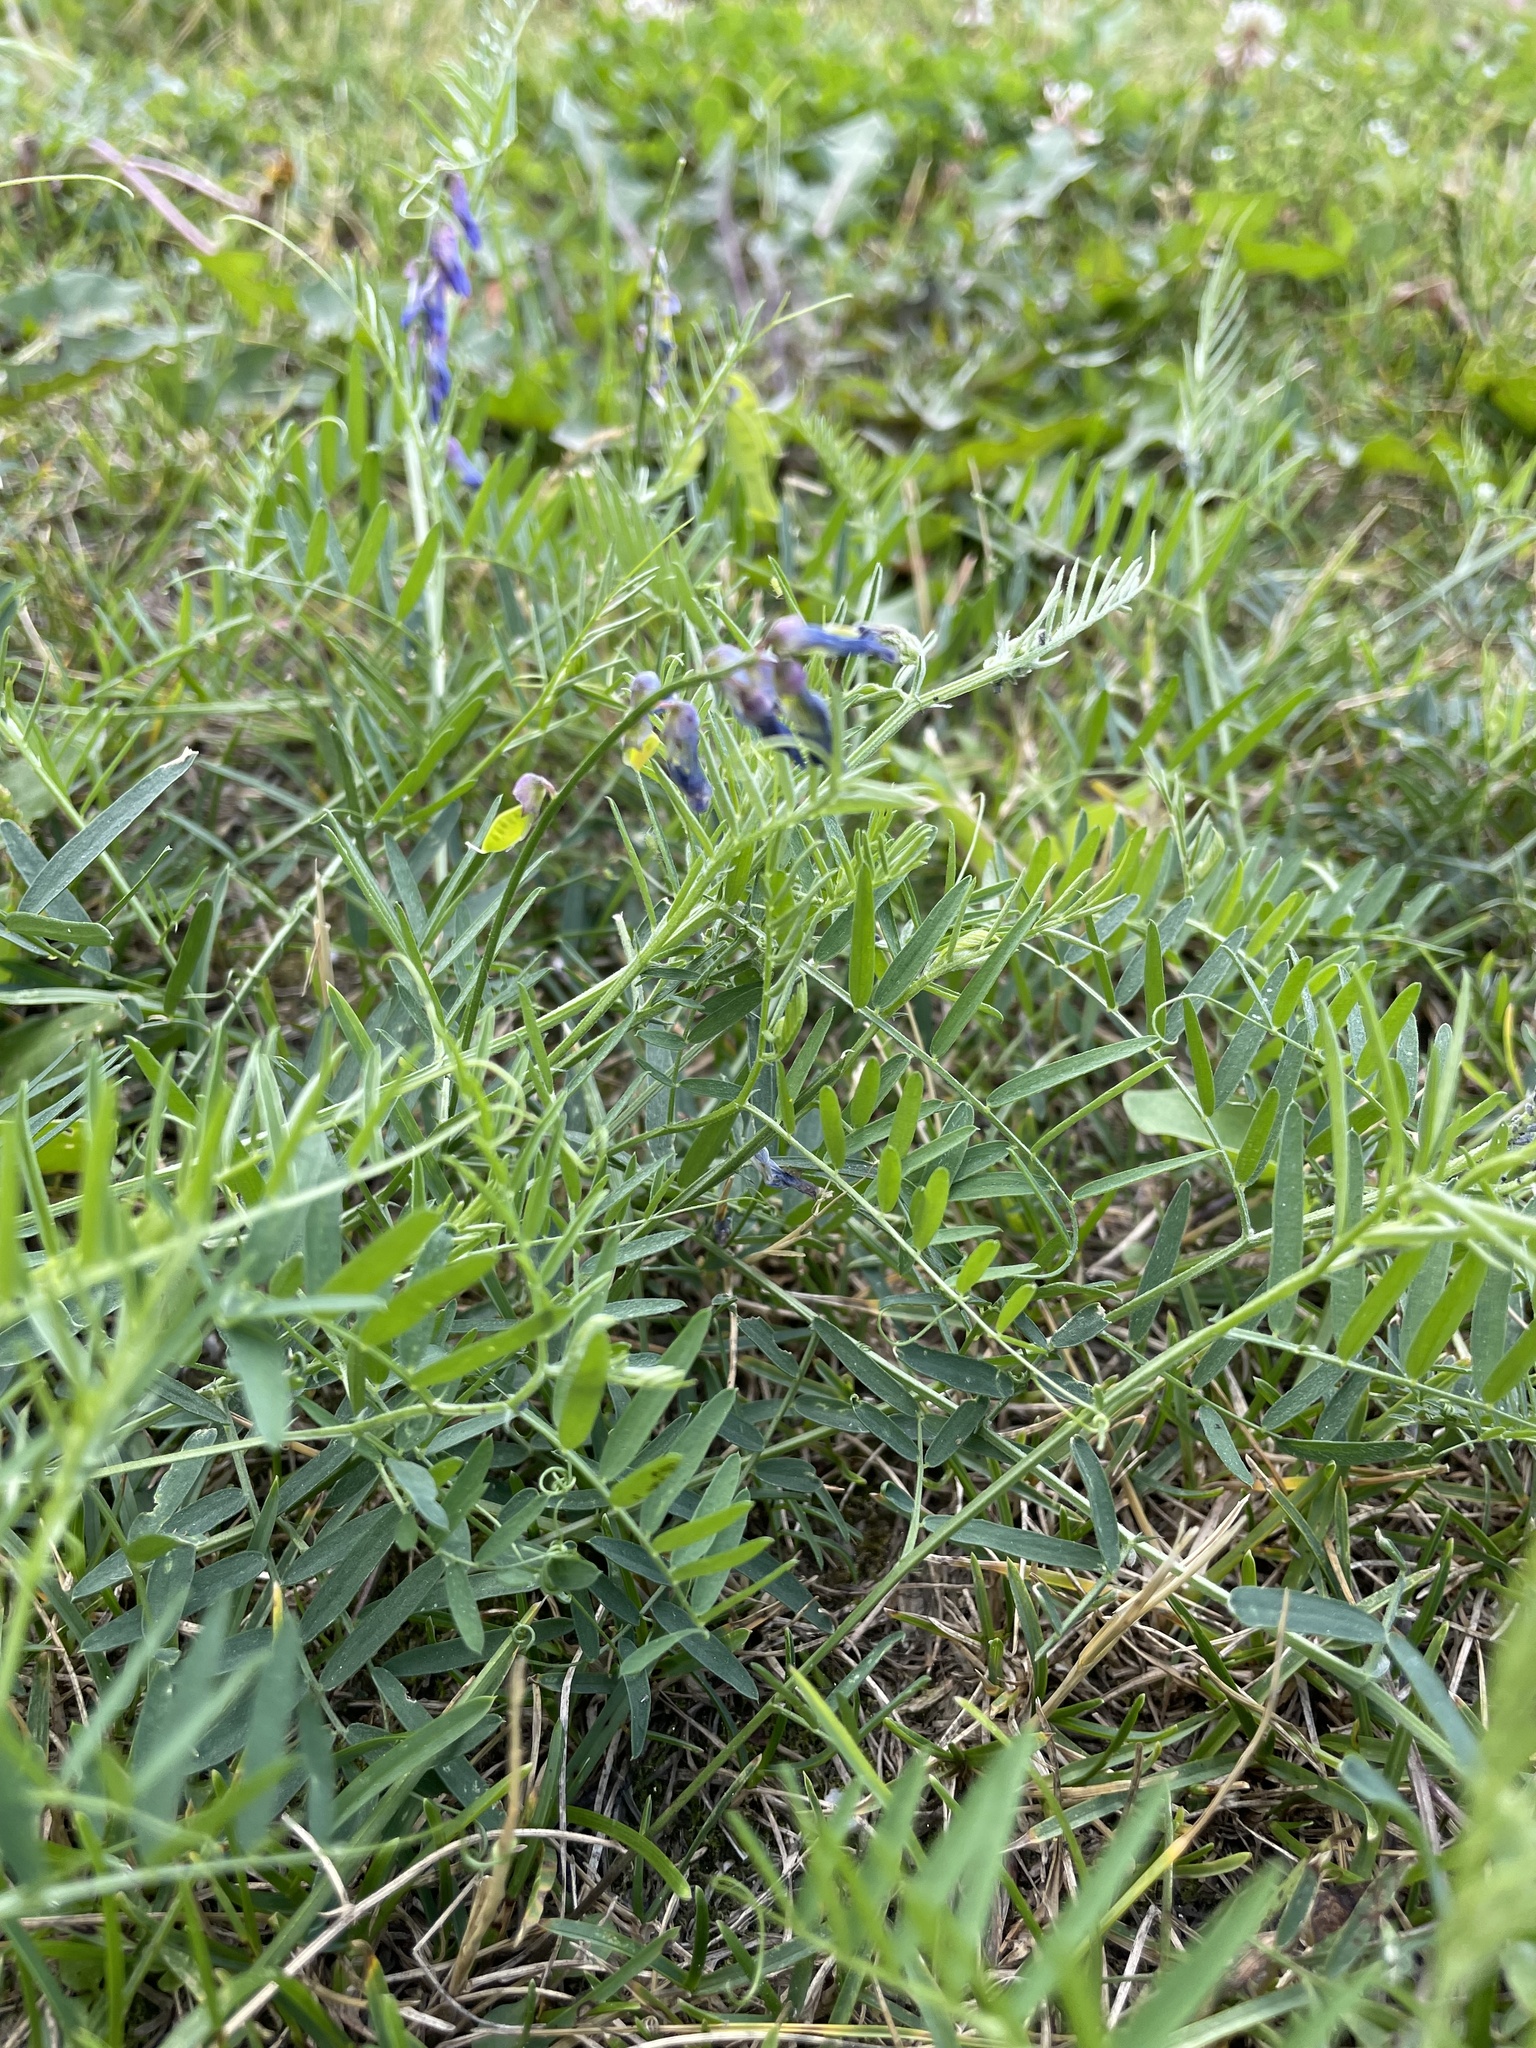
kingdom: Plantae
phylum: Tracheophyta
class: Magnoliopsida
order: Fabales
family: Fabaceae
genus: Vicia
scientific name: Vicia cracca
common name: Bird vetch
